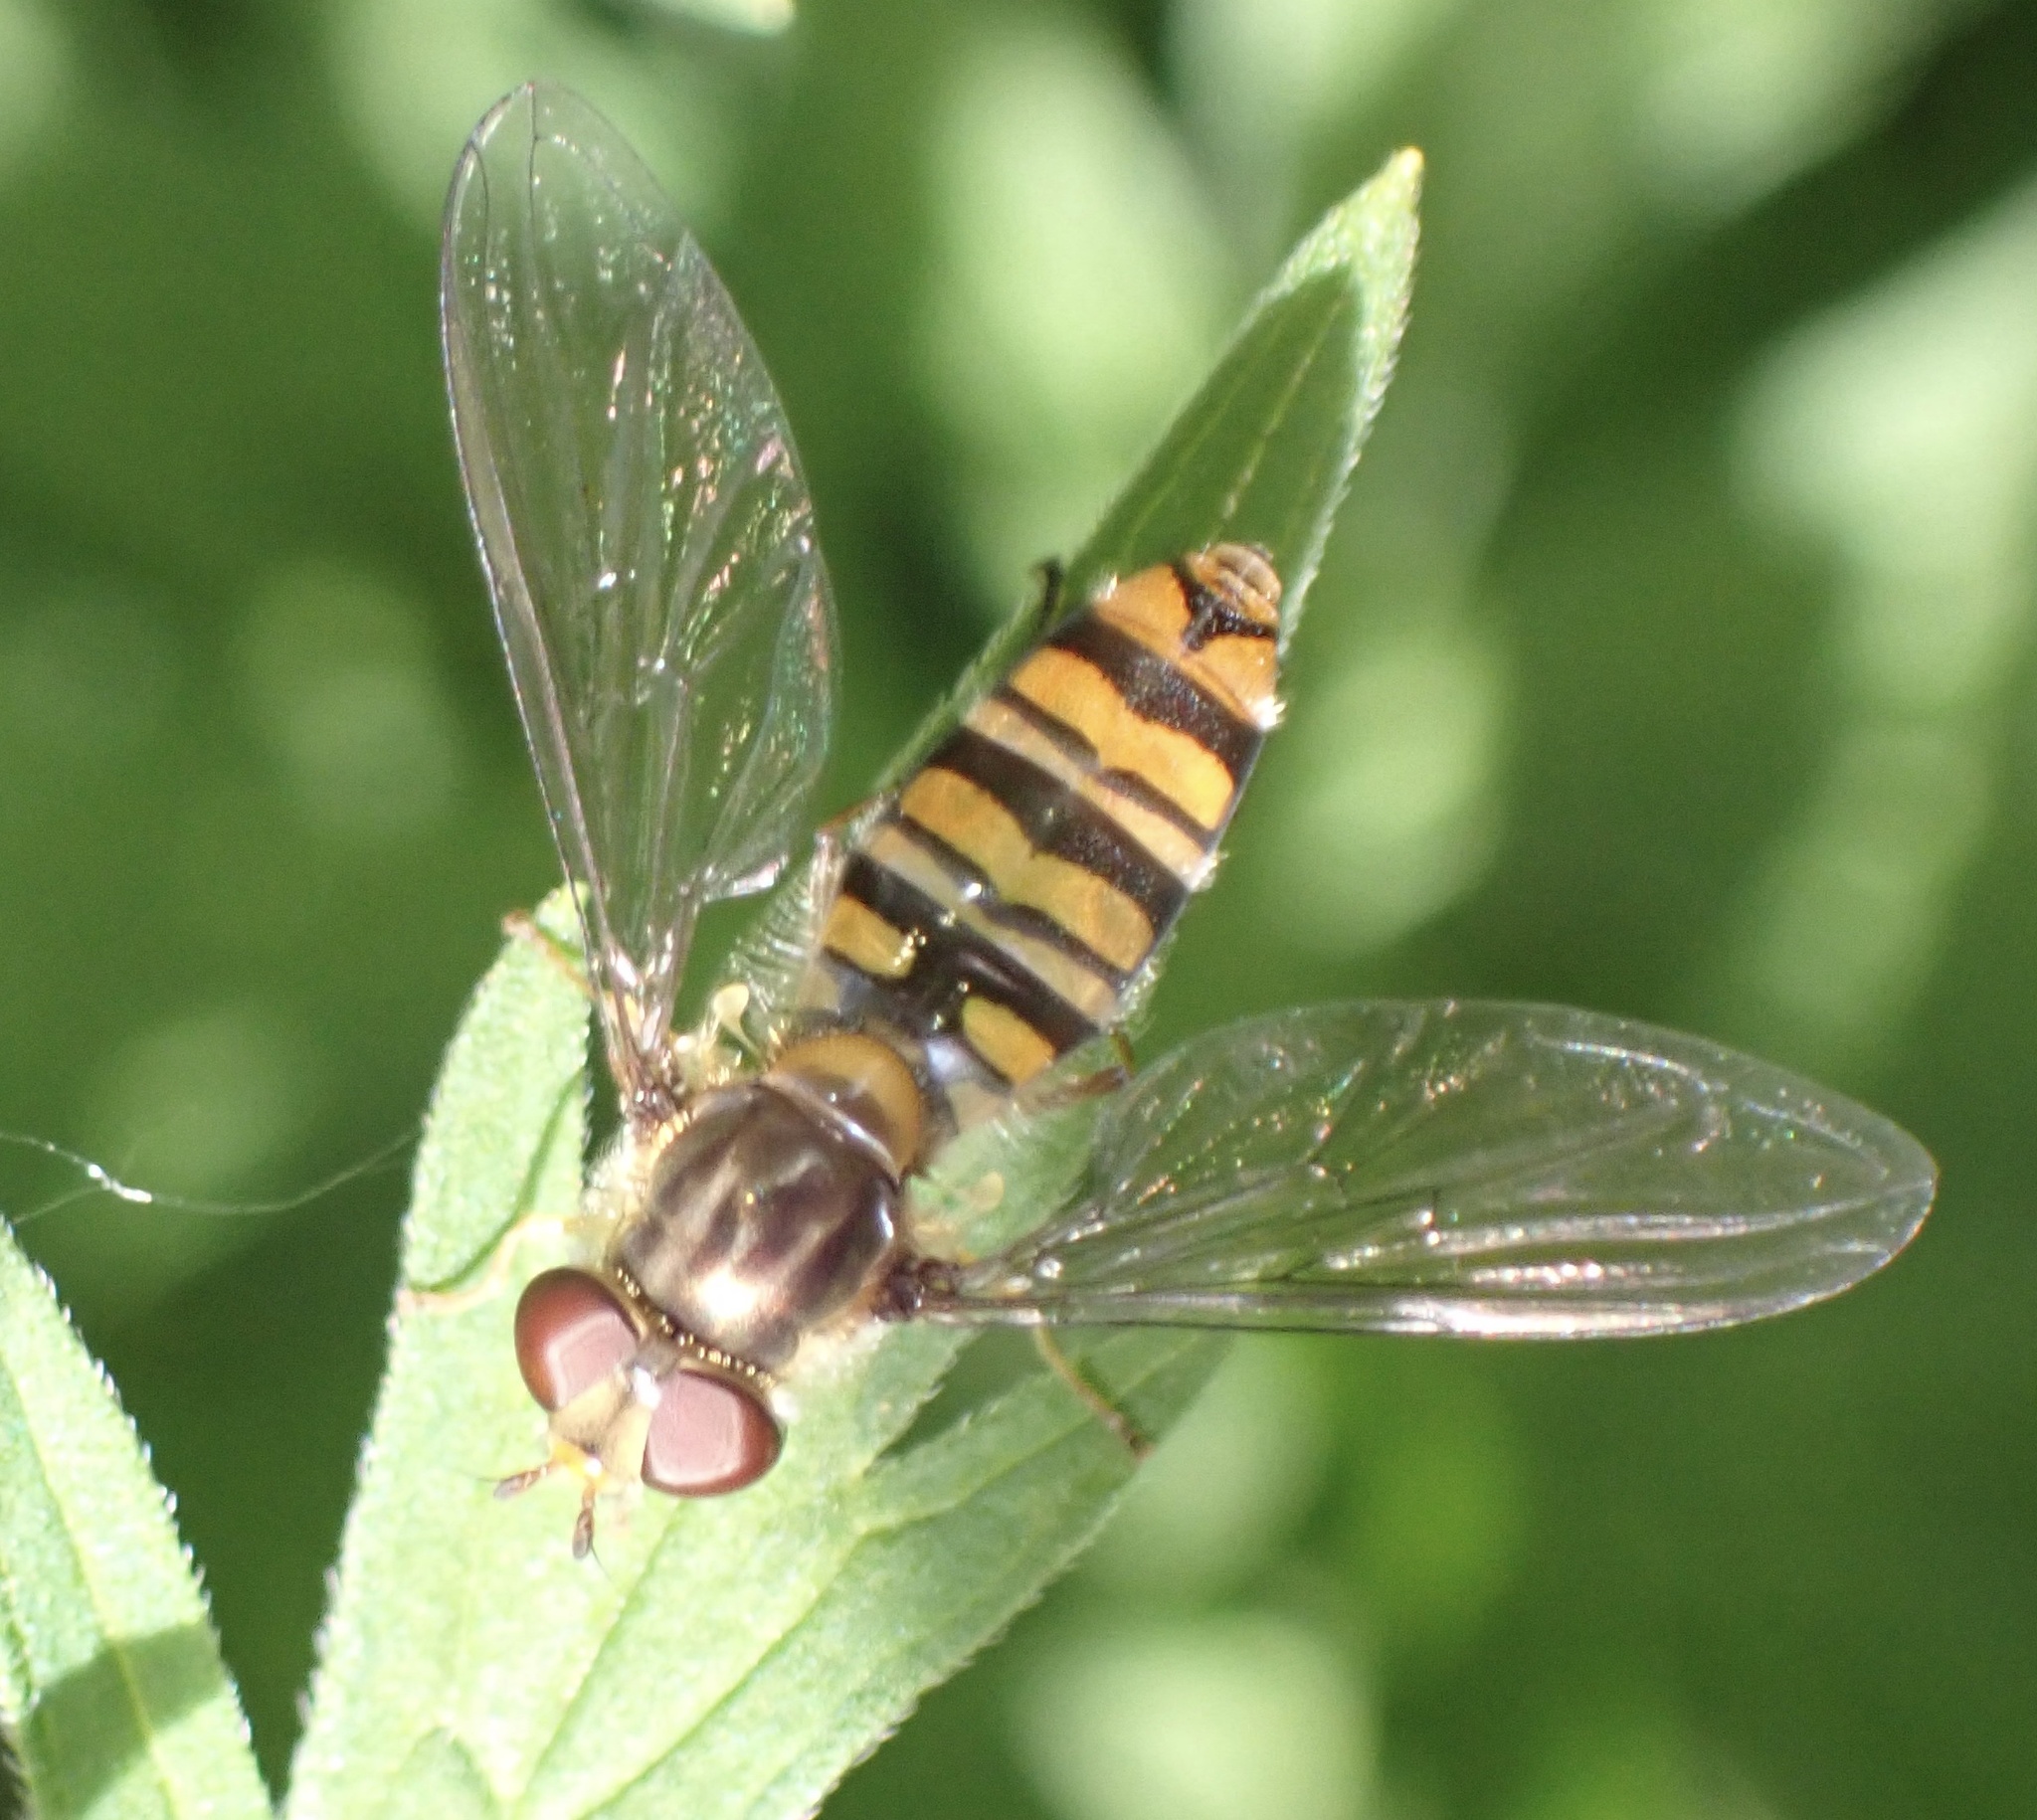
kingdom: Animalia
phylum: Arthropoda
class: Insecta
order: Diptera
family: Syrphidae
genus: Episyrphus
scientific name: Episyrphus balteatus
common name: Marmalade hoverfly
